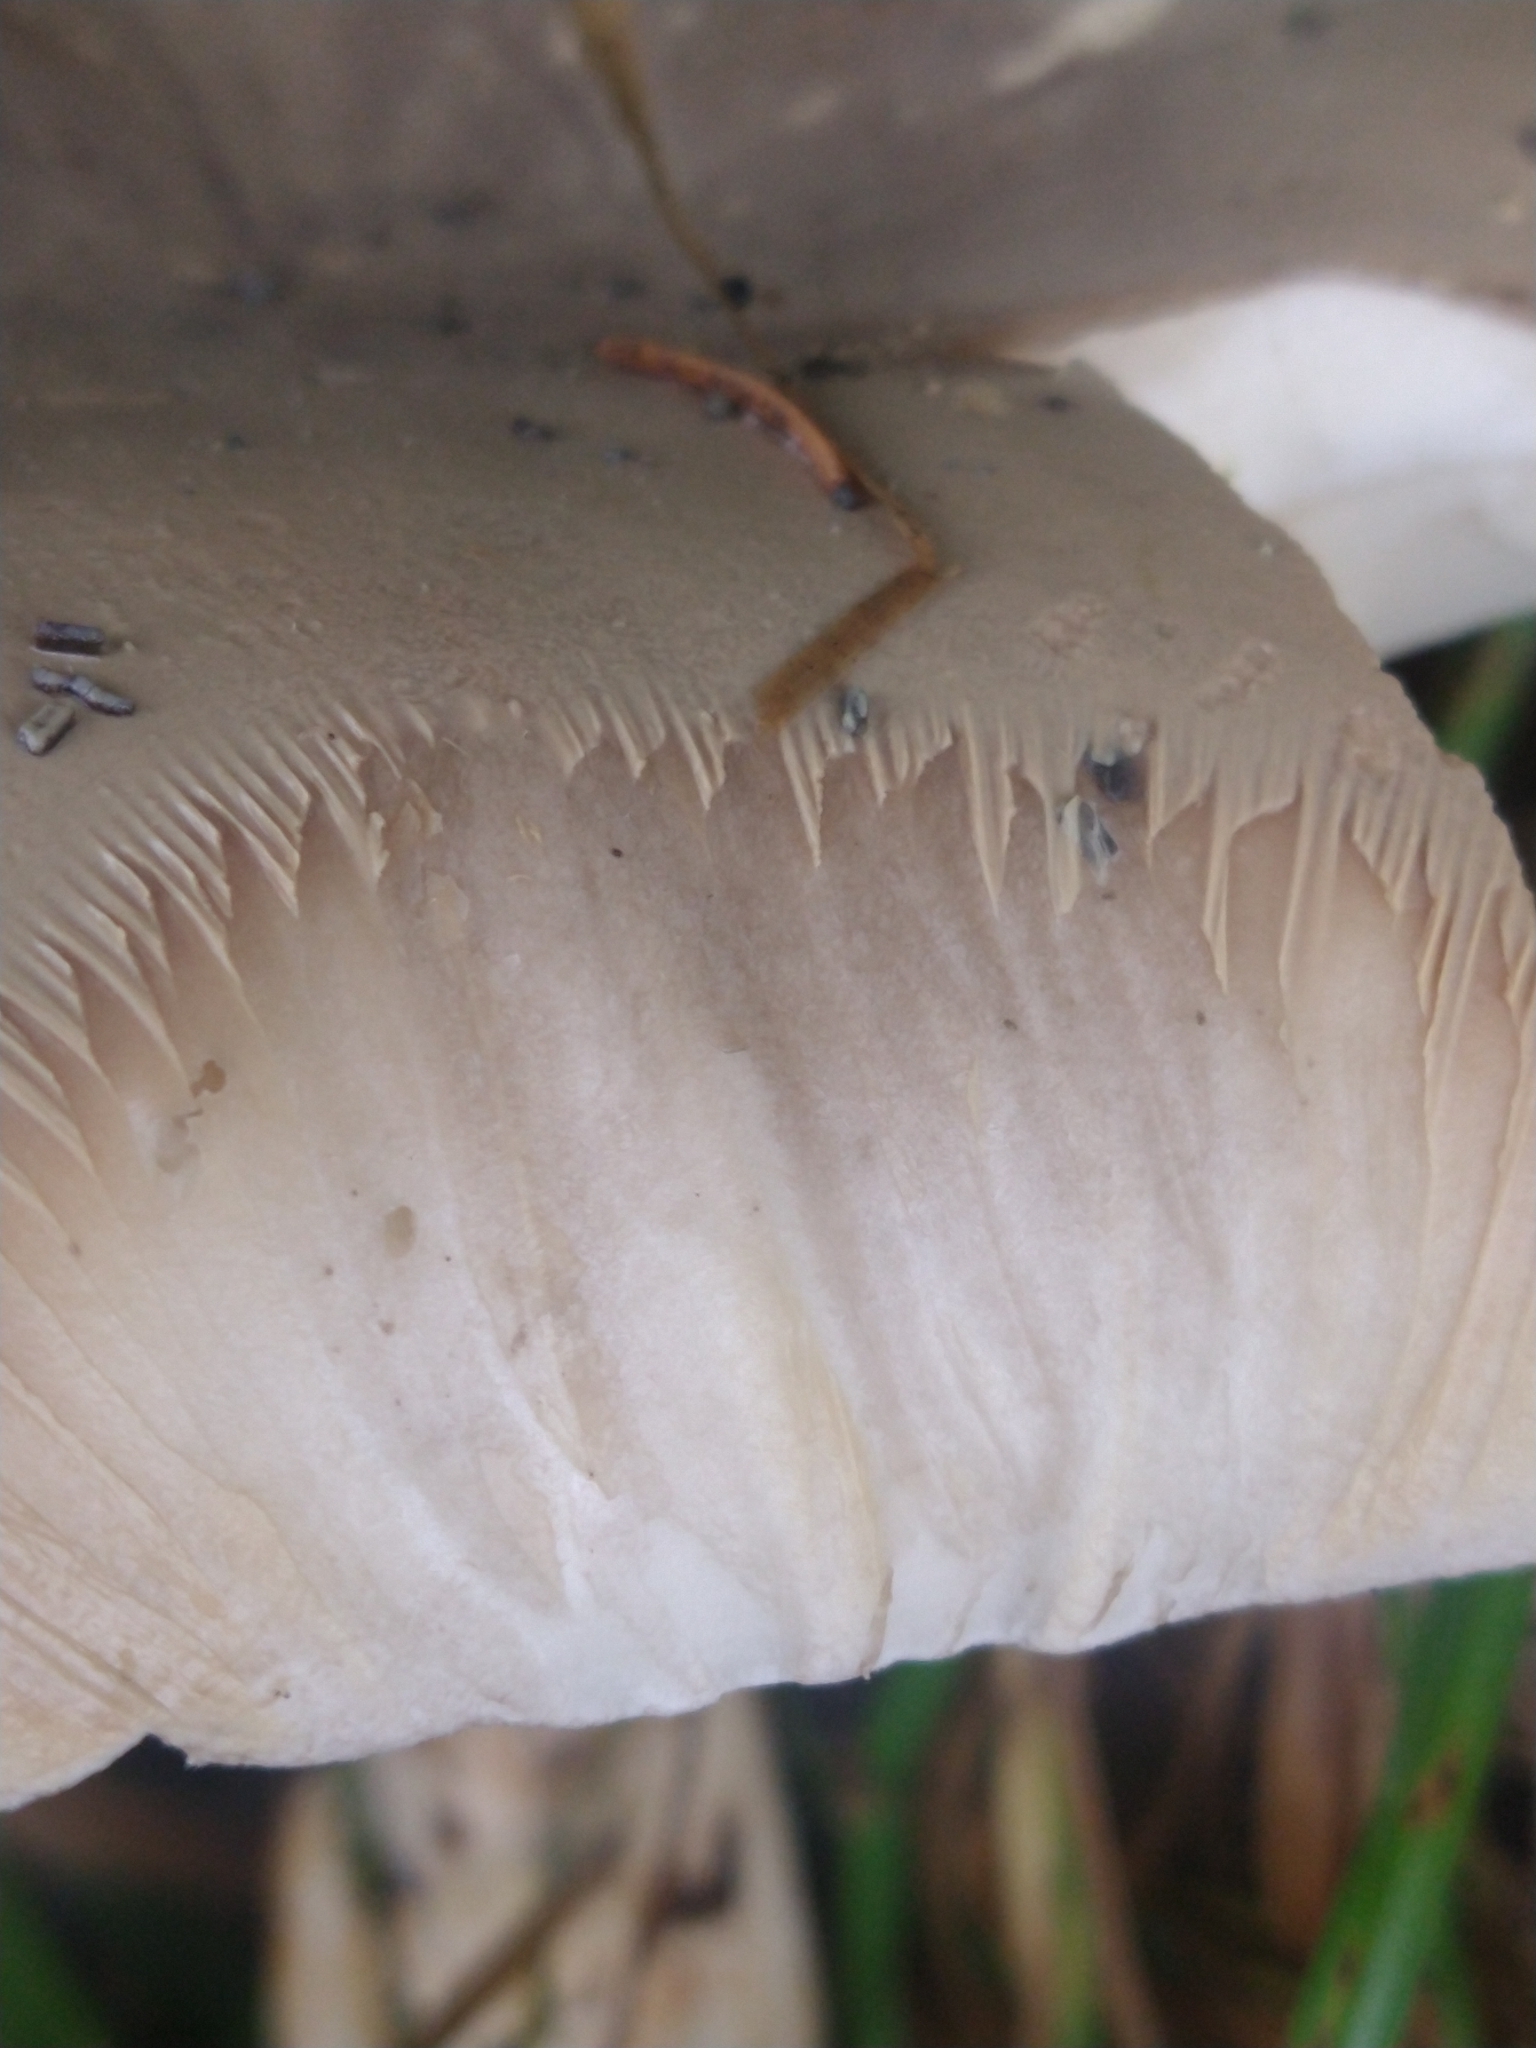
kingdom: Fungi
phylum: Basidiomycota
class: Agaricomycetes
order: Agaricales
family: Tricholomataceae
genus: Clitocybe
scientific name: Clitocybe nebularis
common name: Clouded agaric
